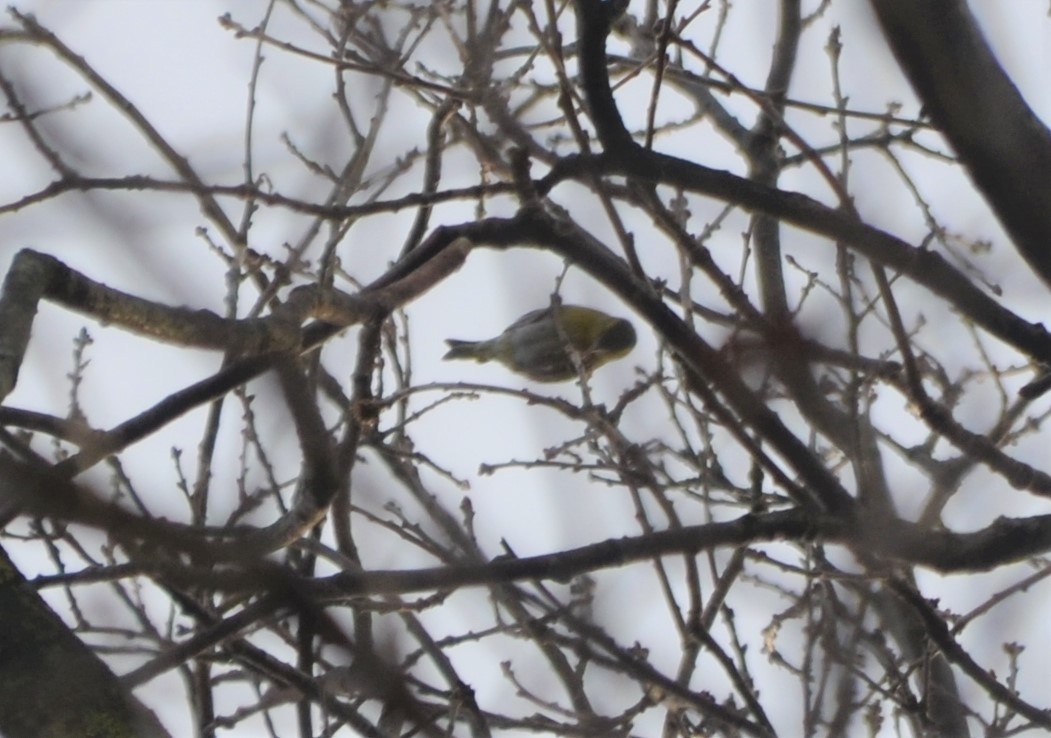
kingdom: Animalia
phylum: Chordata
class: Aves
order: Passeriformes
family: Fringillidae
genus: Spinus
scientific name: Spinus spinus
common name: Eurasian siskin
